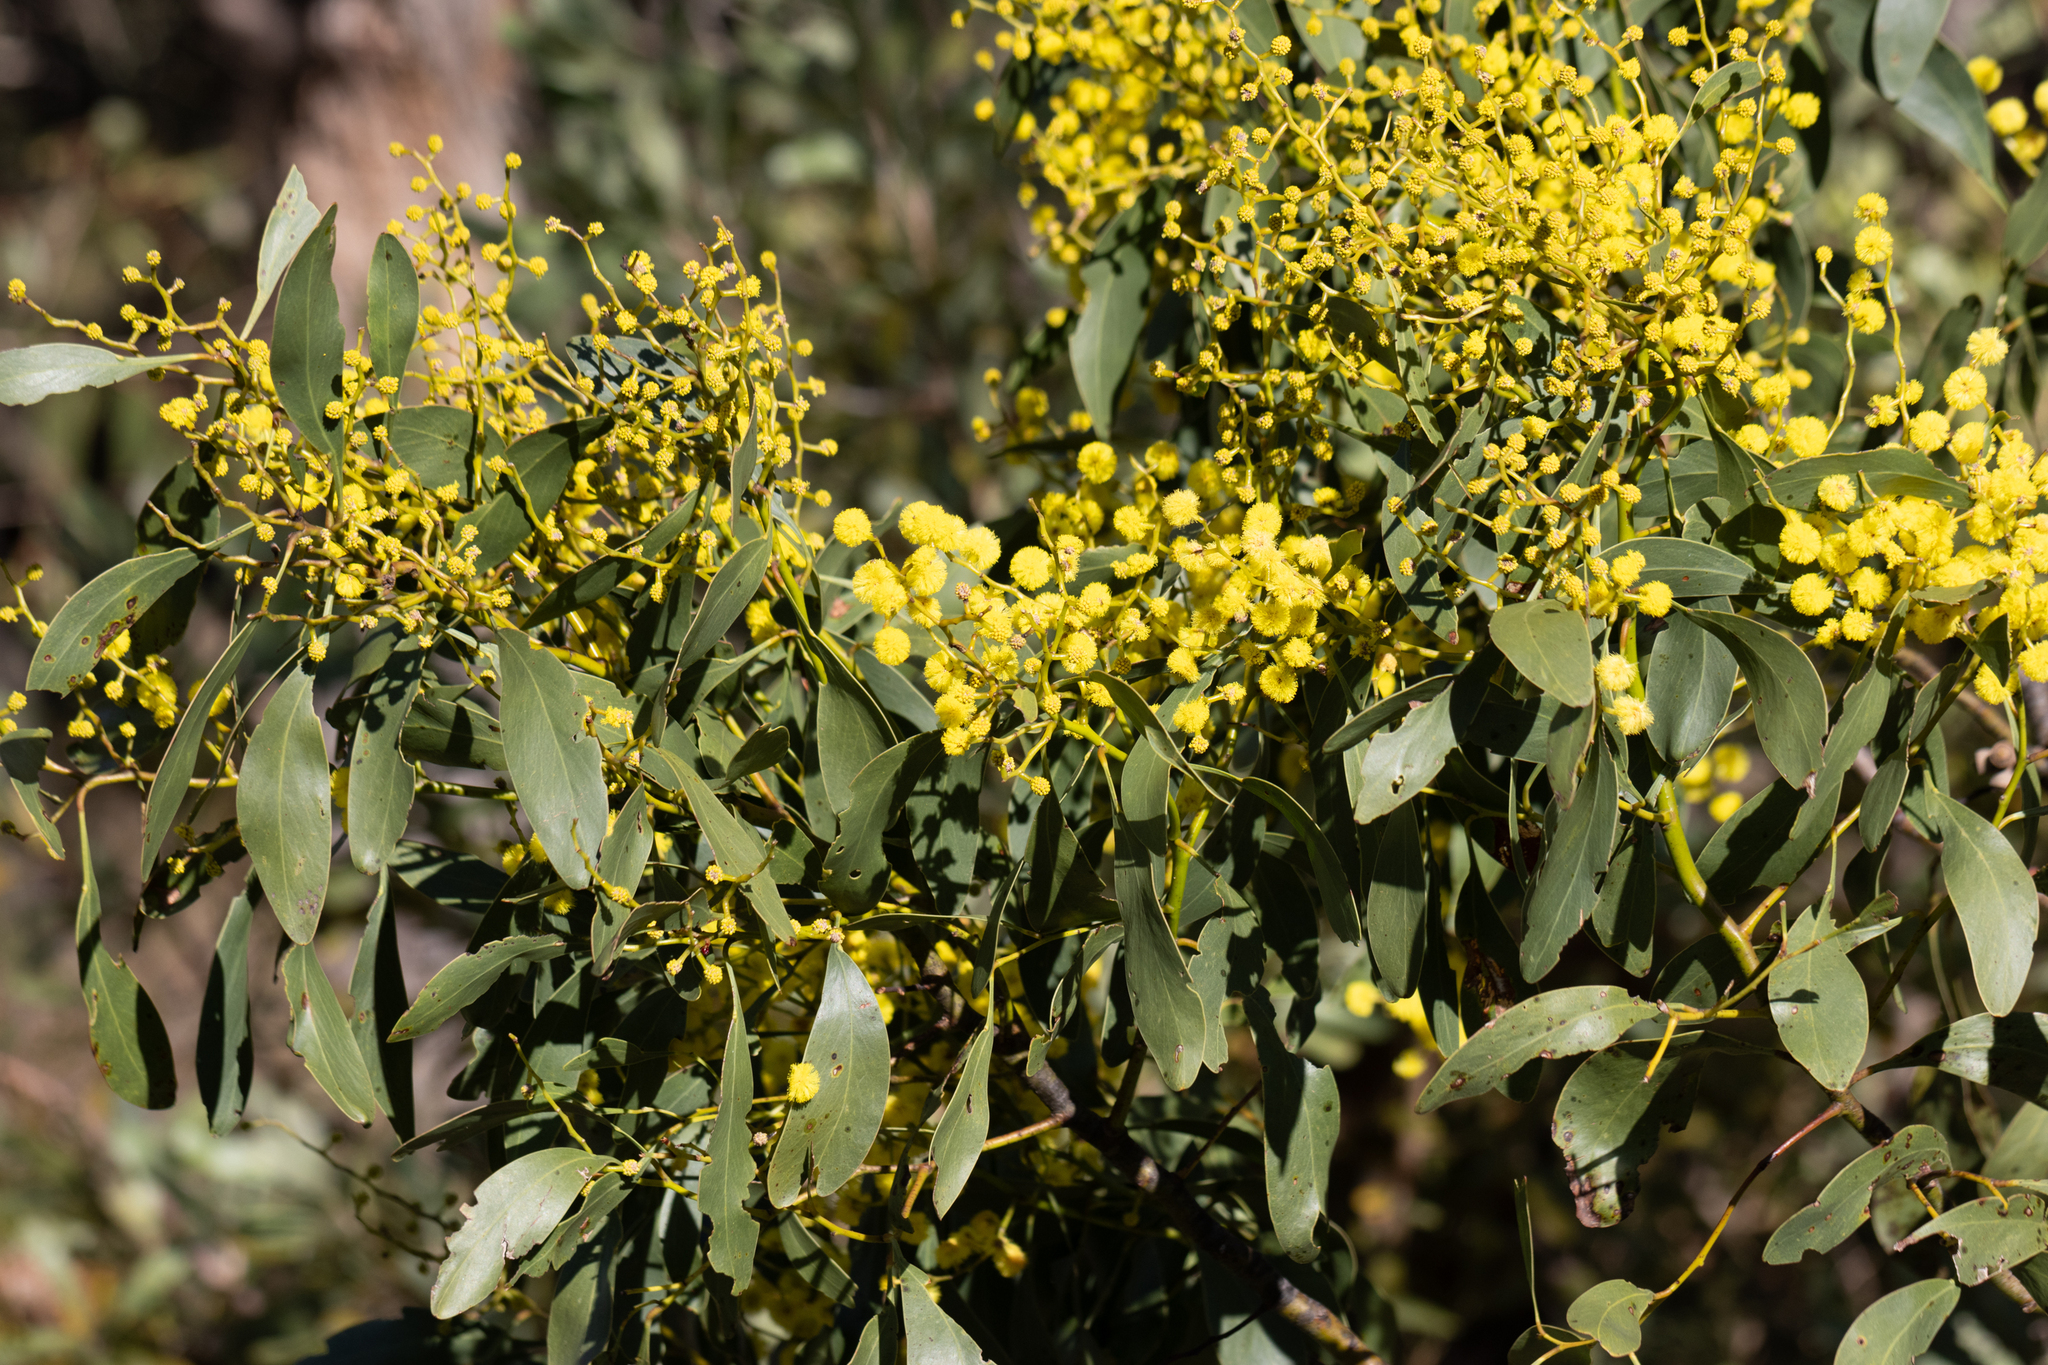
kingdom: Plantae
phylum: Tracheophyta
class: Magnoliopsida
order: Fabales
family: Fabaceae
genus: Acacia
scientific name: Acacia pycnantha
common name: Golden wattle
